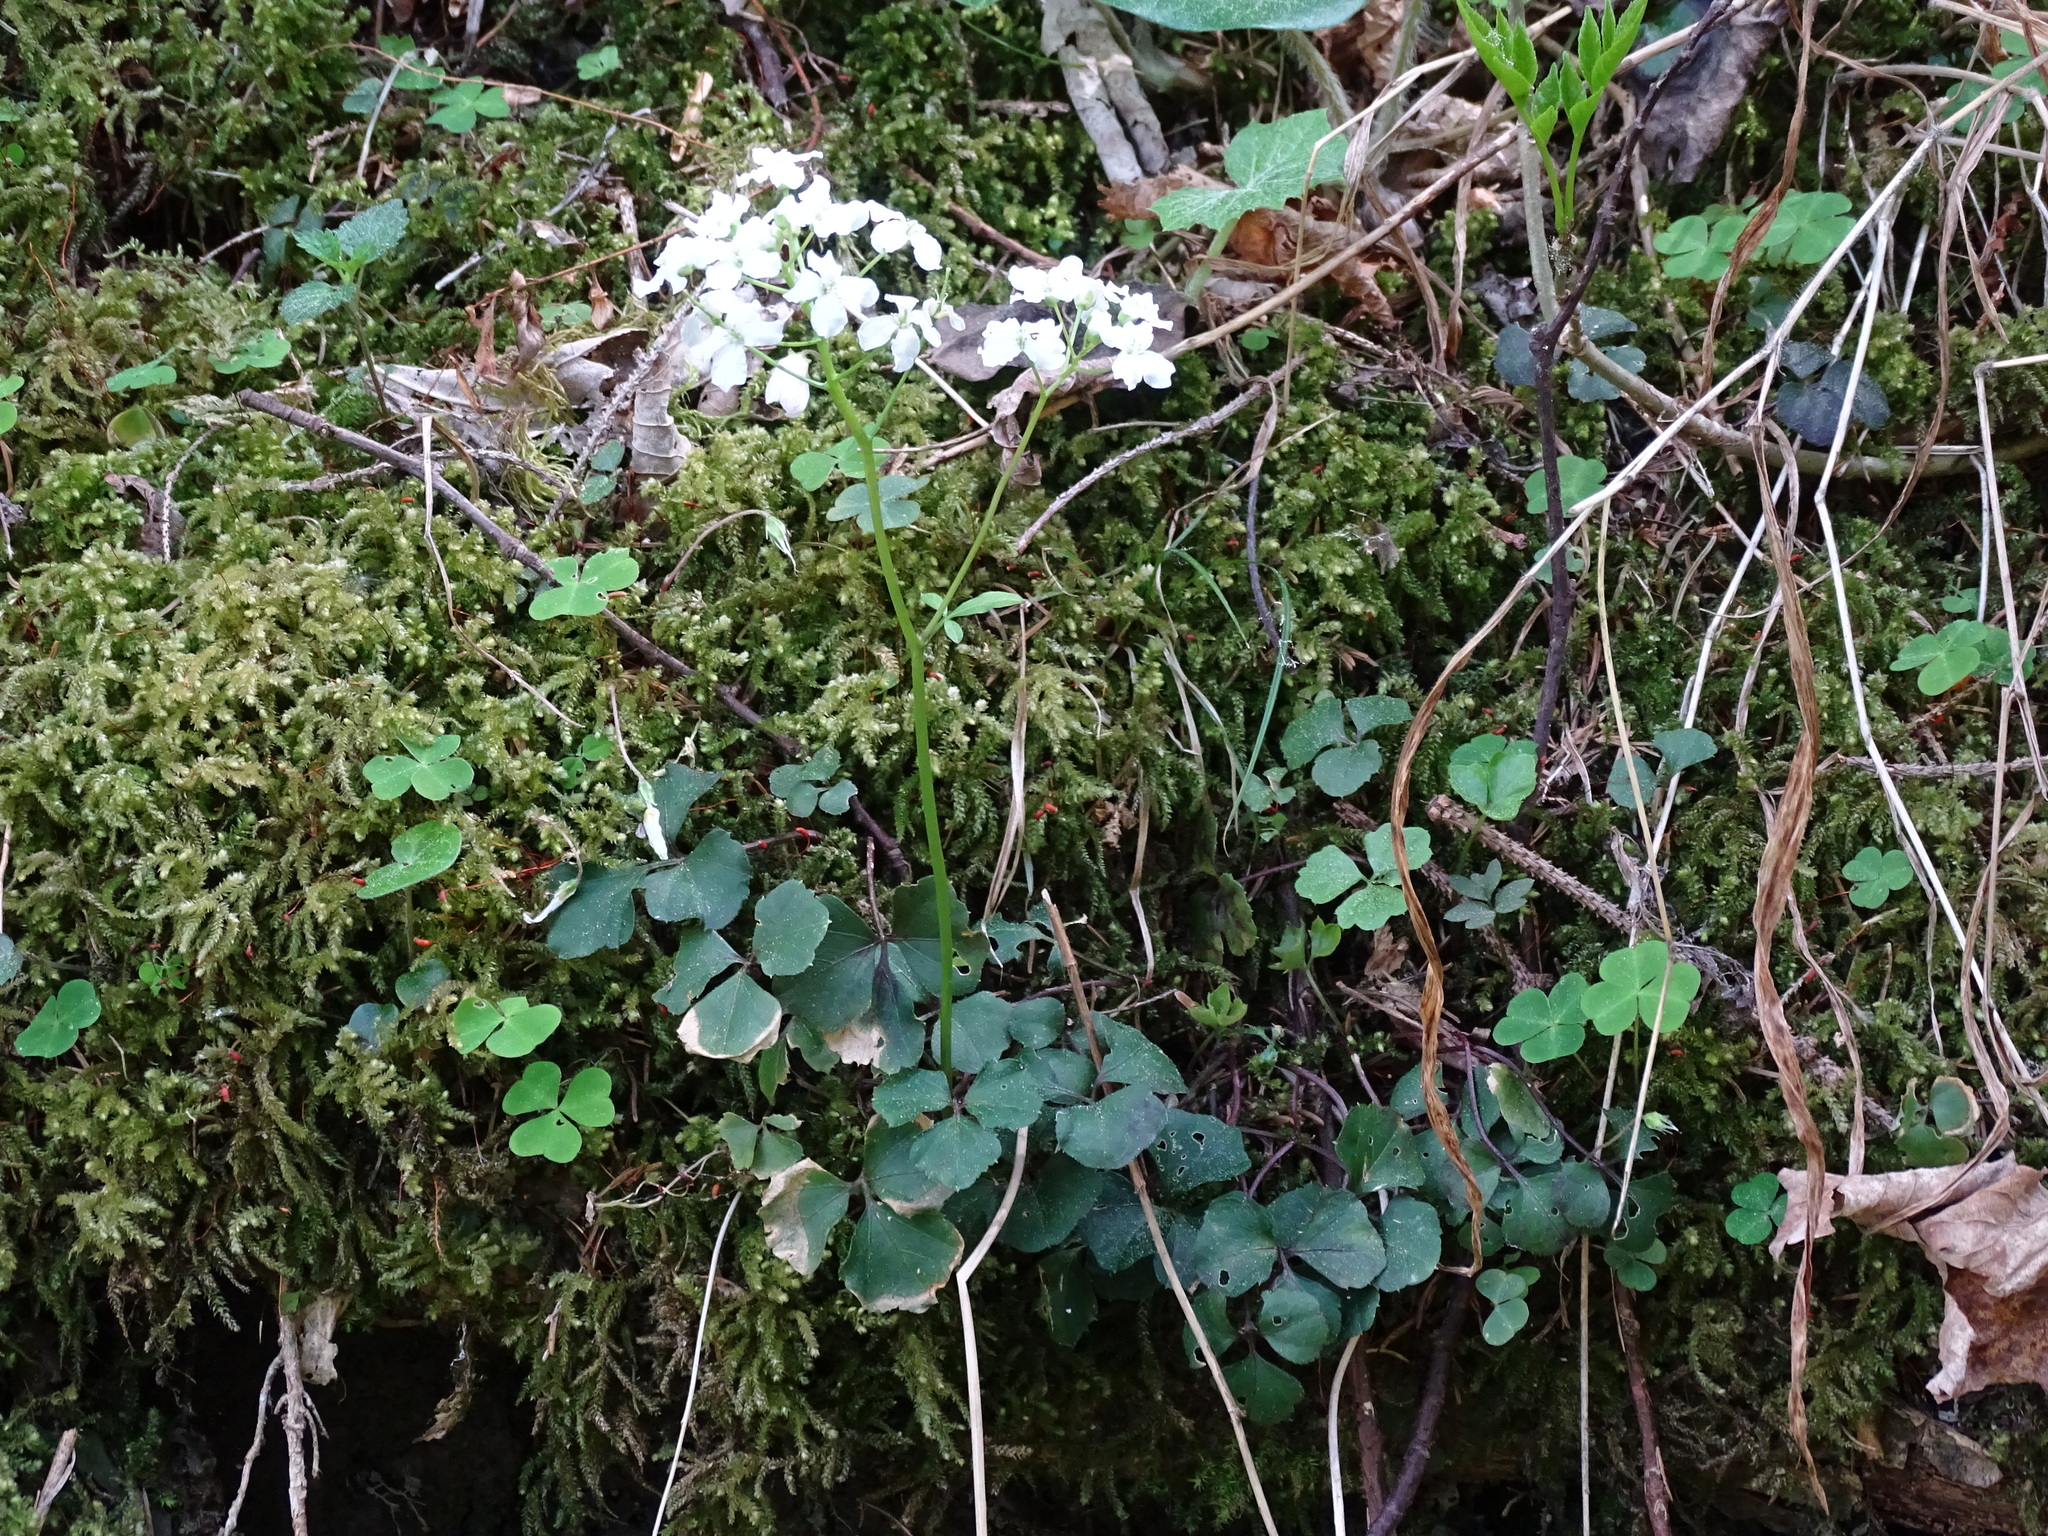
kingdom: Plantae
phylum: Tracheophyta
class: Magnoliopsida
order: Brassicales
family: Brassicaceae
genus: Cardamine
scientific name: Cardamine trifolia
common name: Trefoil cress
